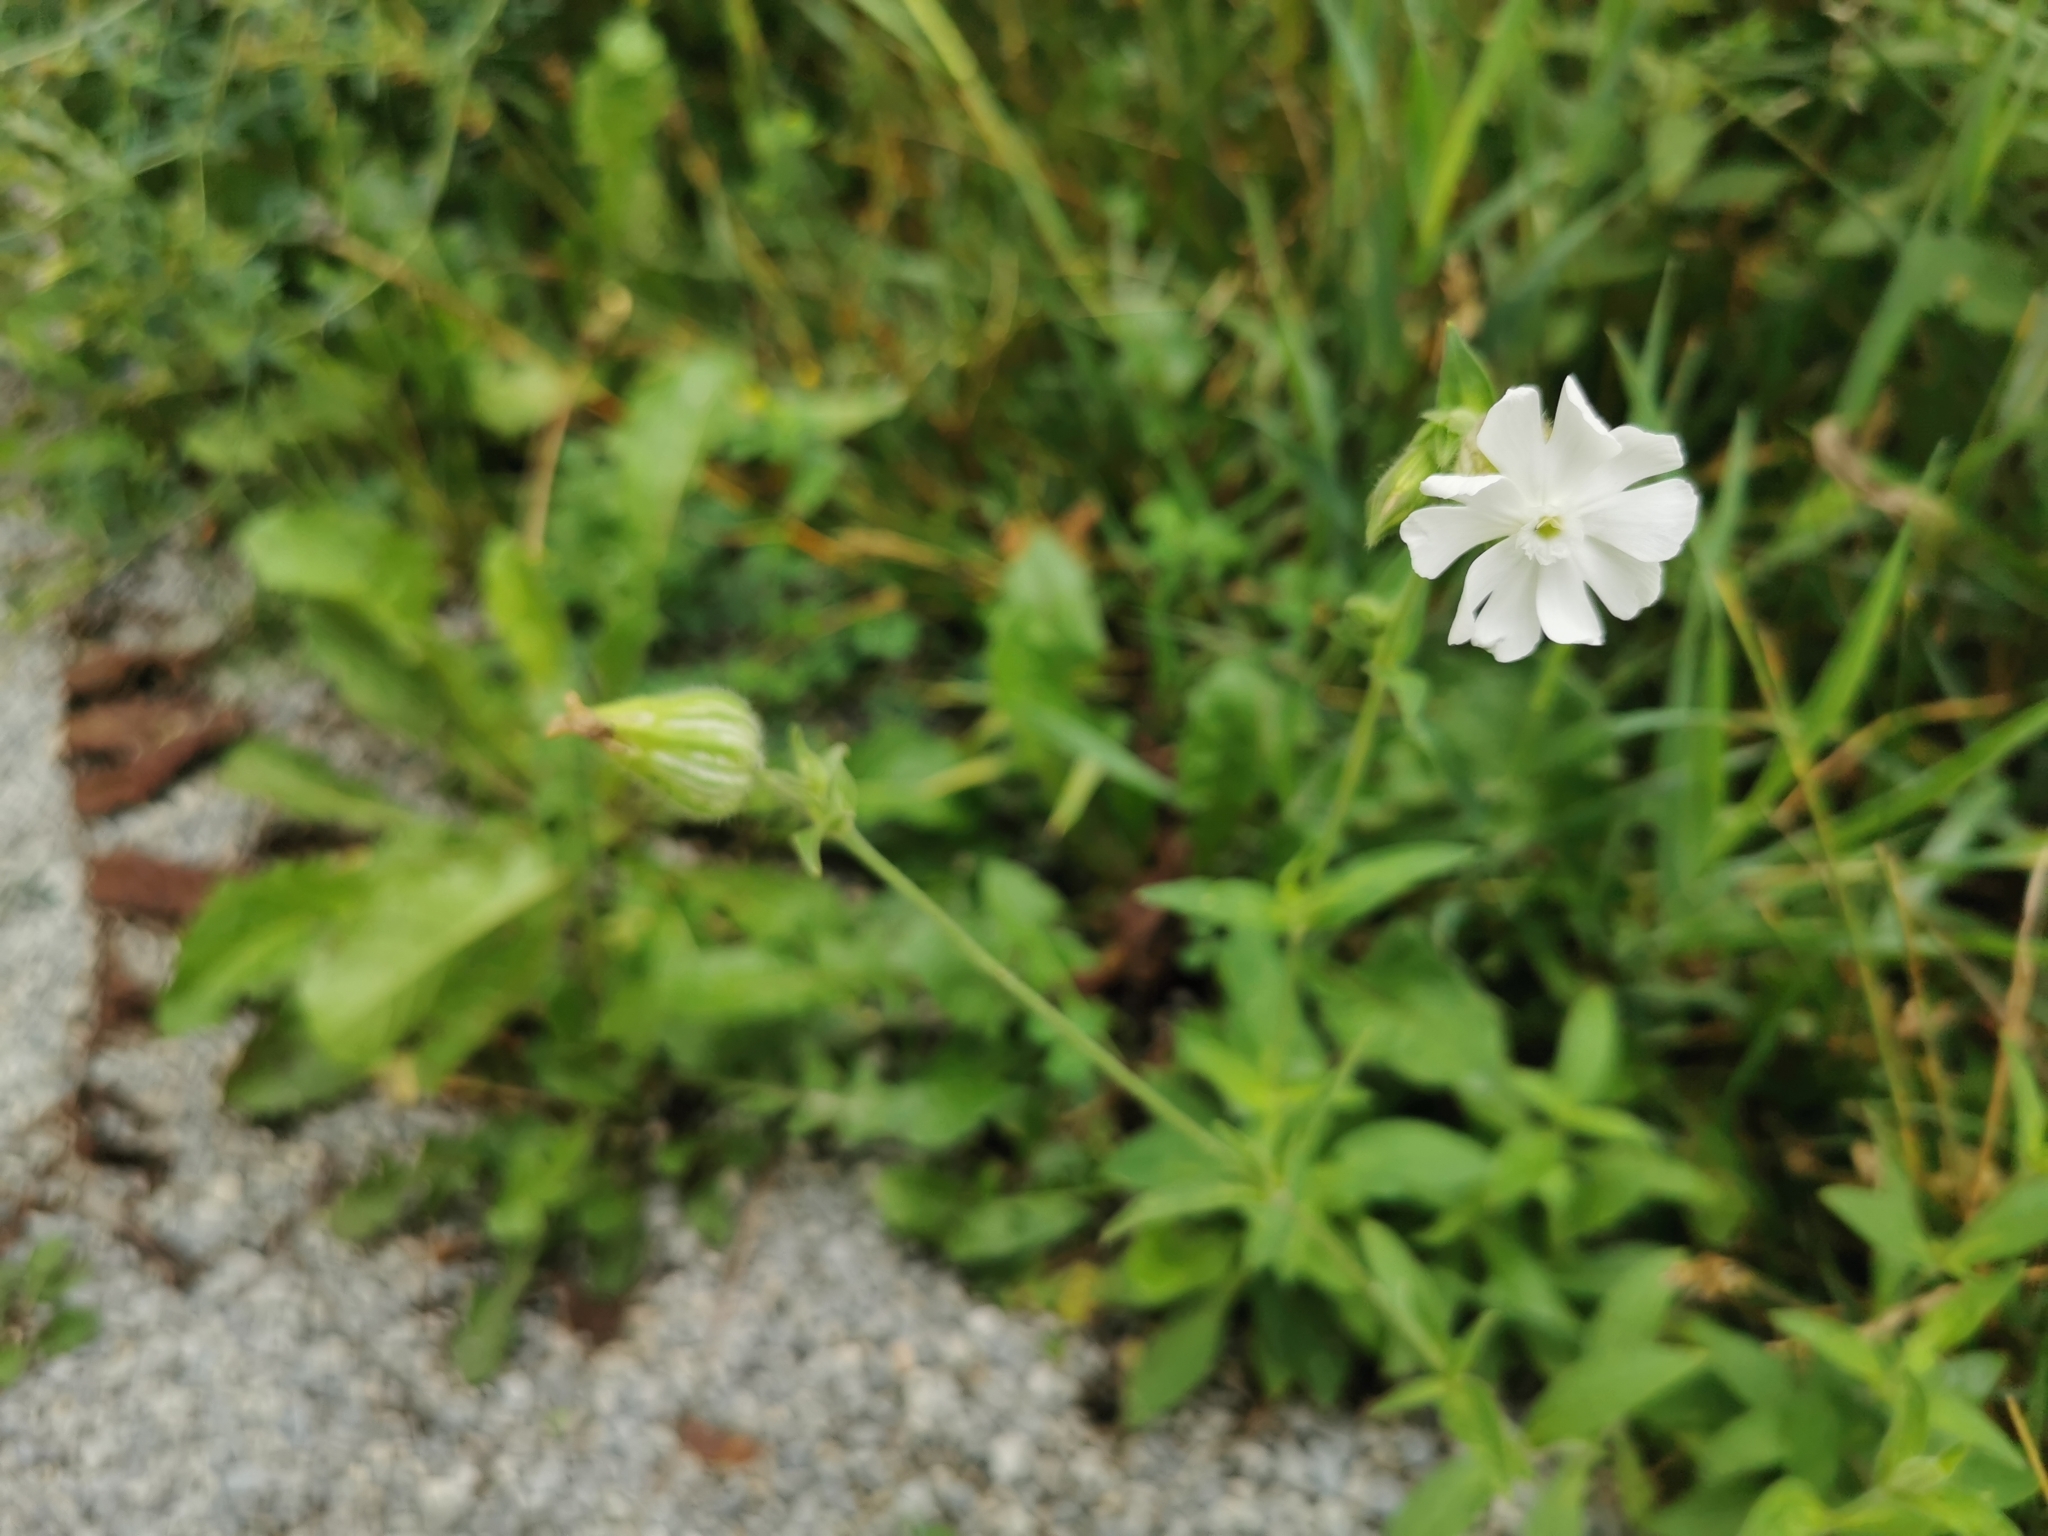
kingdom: Plantae
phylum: Tracheophyta
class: Magnoliopsida
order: Caryophyllales
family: Caryophyllaceae
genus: Silene
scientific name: Silene latifolia
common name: White campion
